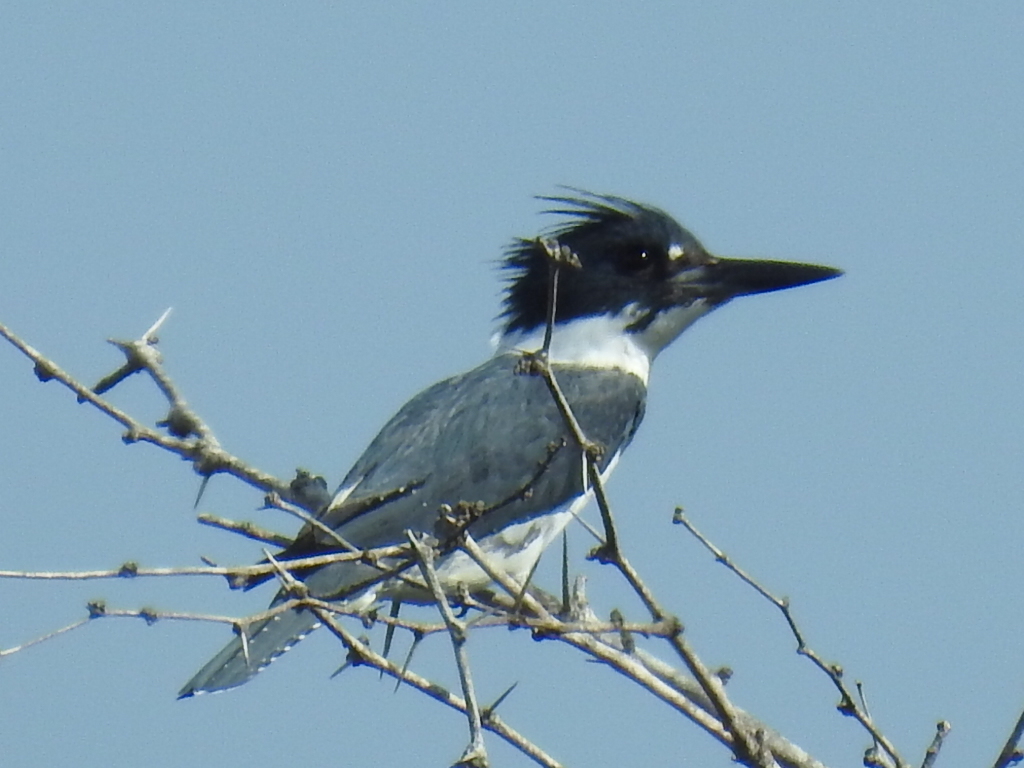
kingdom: Animalia
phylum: Chordata
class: Aves
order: Coraciiformes
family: Alcedinidae
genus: Megaceryle
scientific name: Megaceryle alcyon
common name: Belted kingfisher
